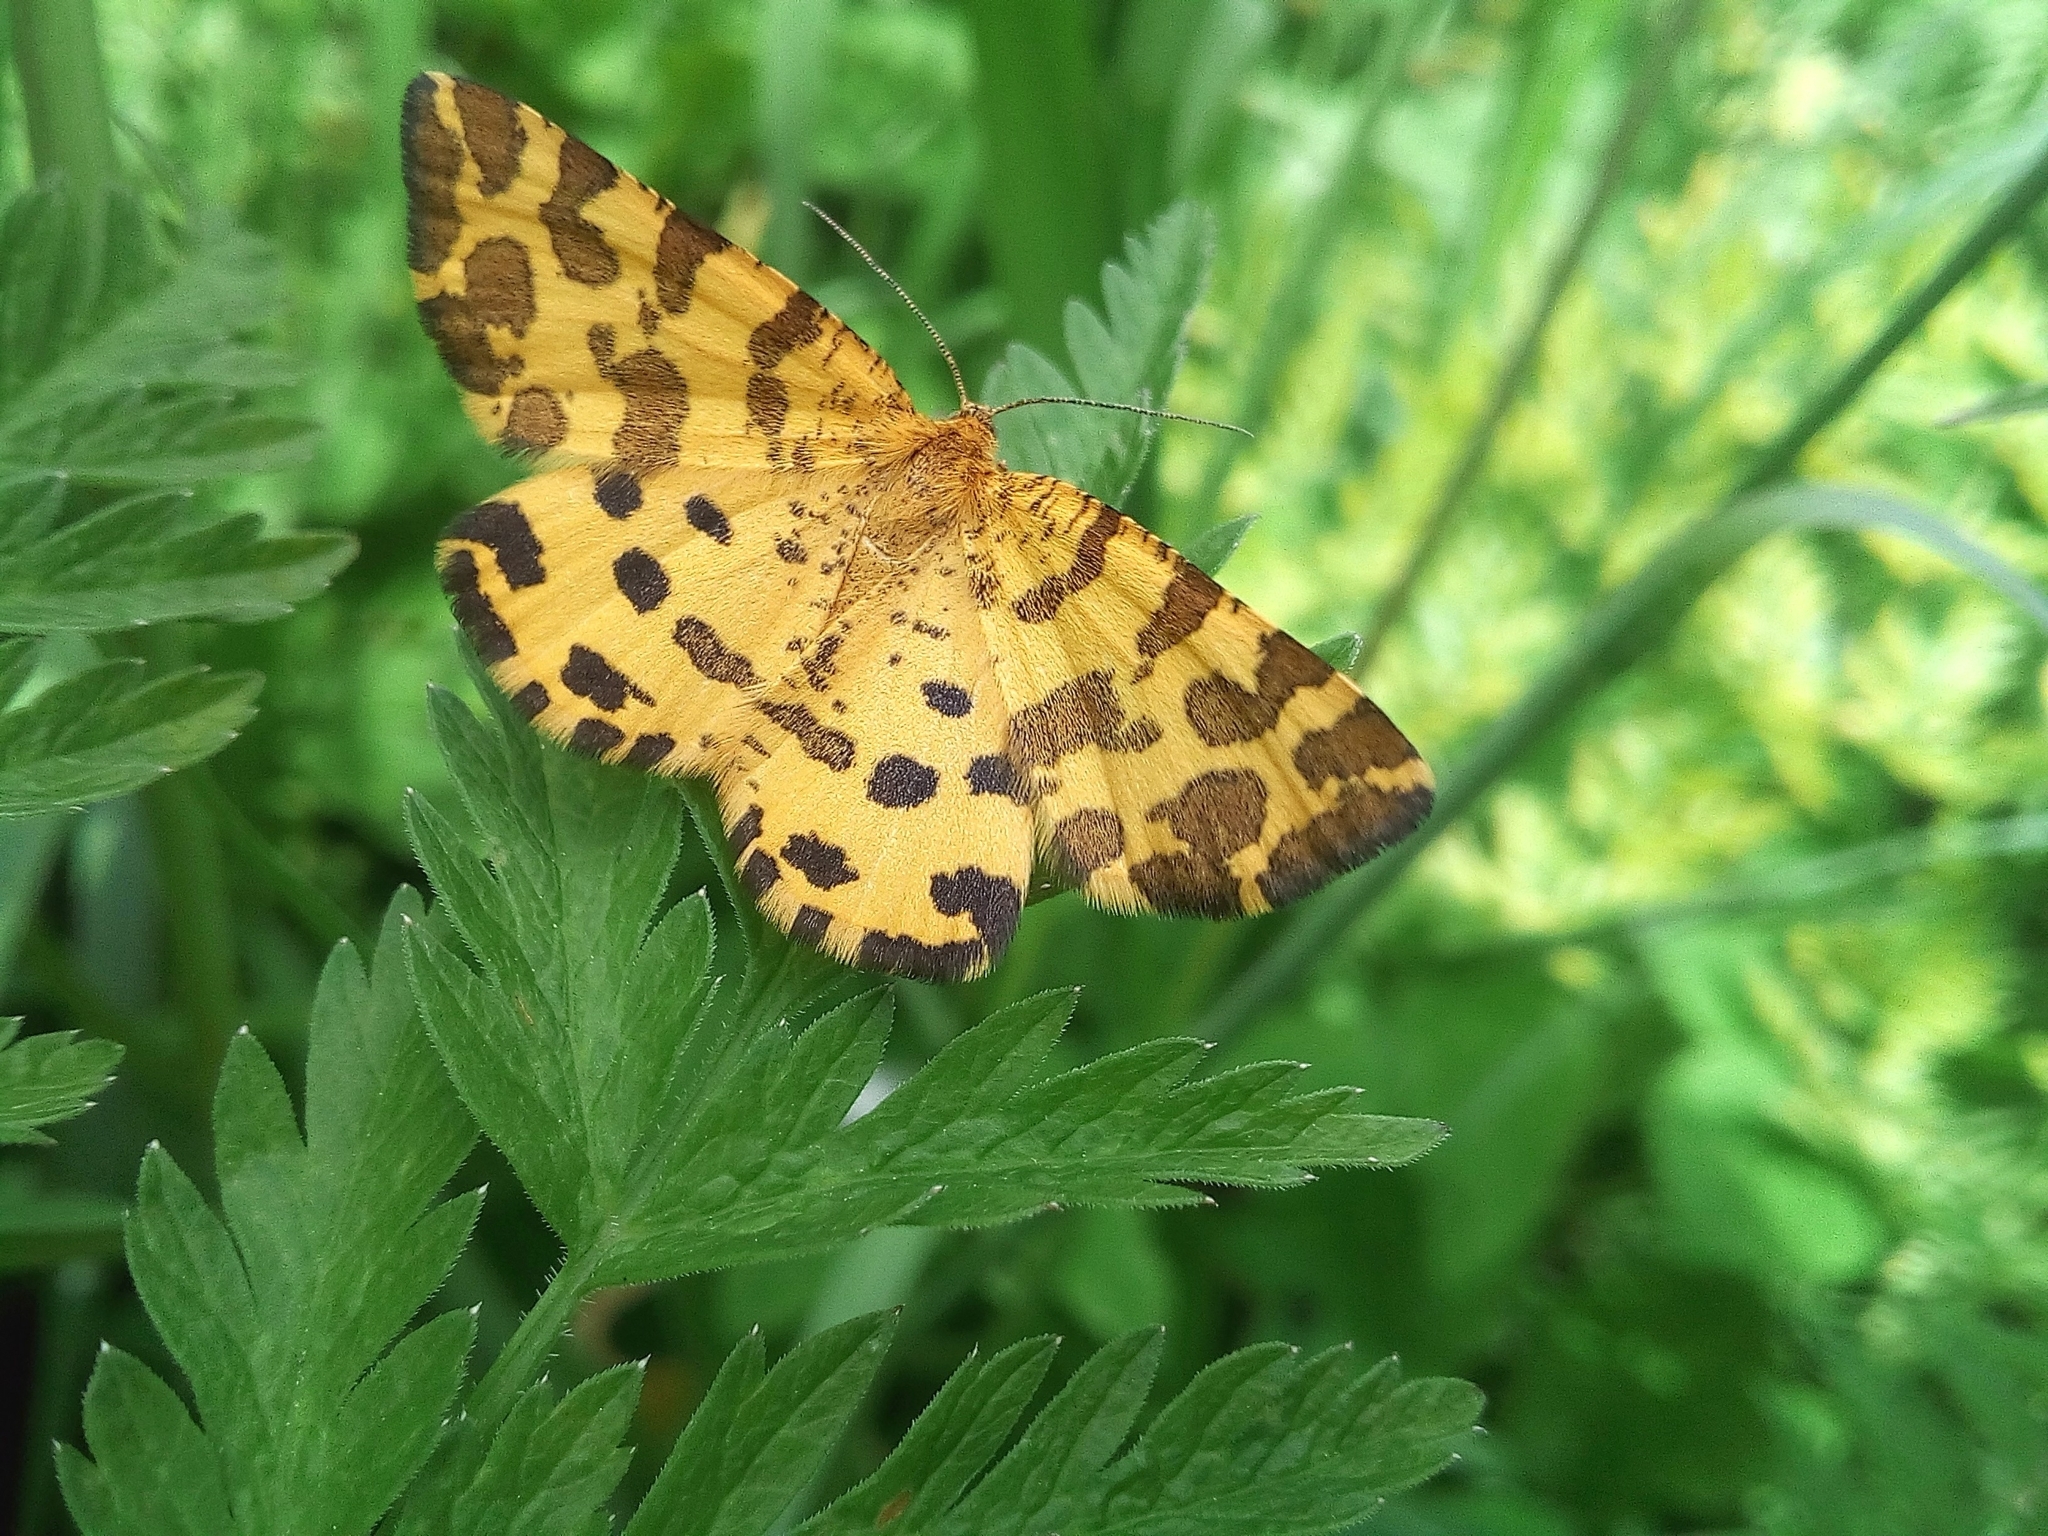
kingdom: Animalia
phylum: Arthropoda
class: Insecta
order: Lepidoptera
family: Geometridae
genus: Pseudopanthera
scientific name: Pseudopanthera macularia
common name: Speckled yellow
